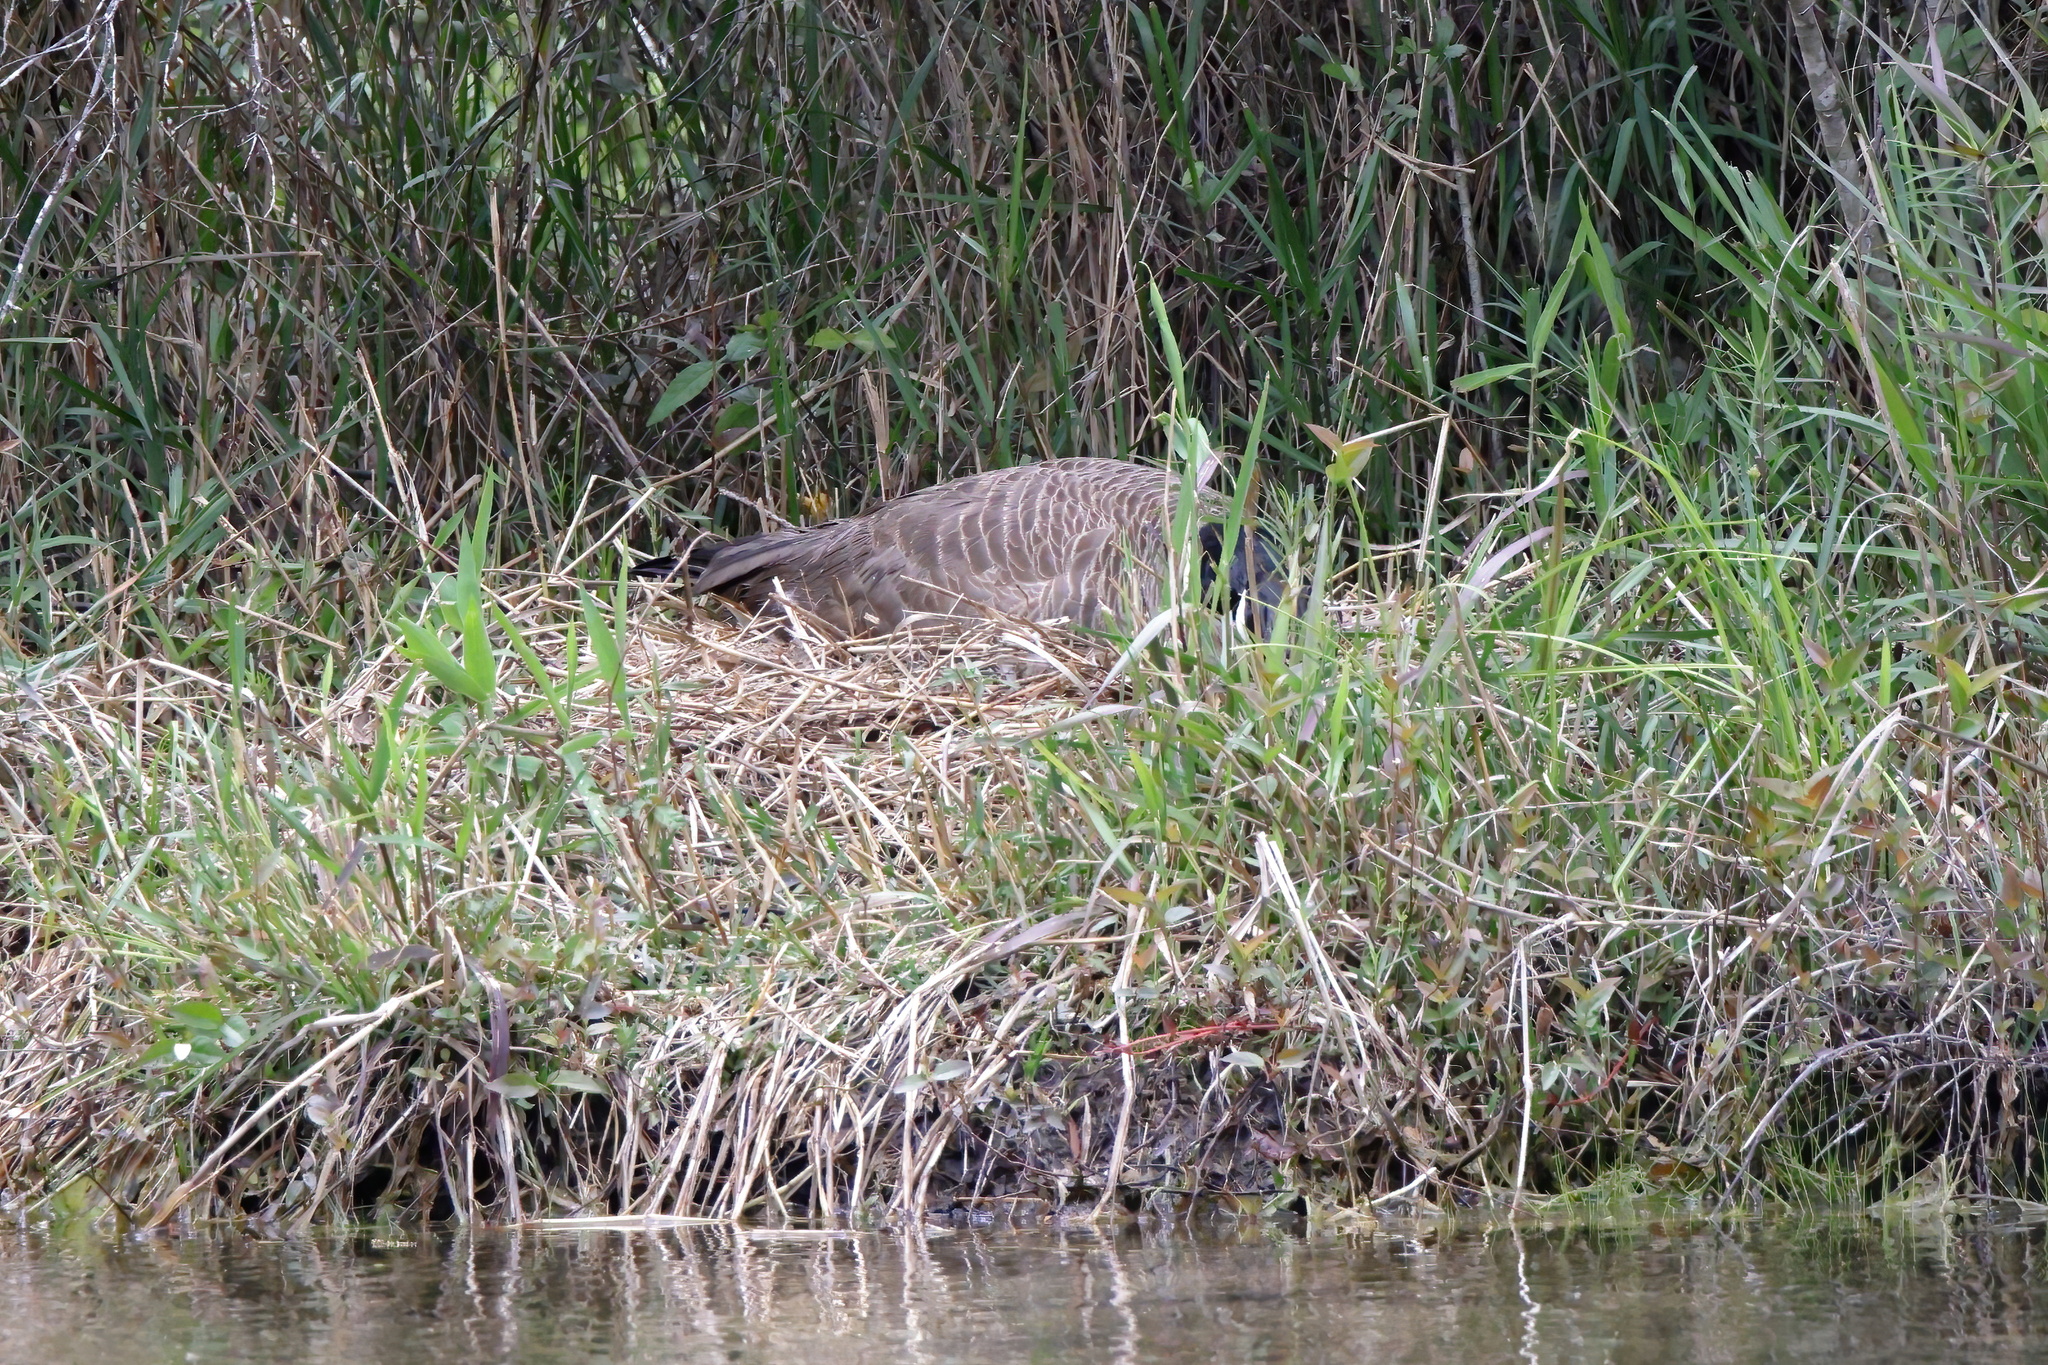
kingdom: Animalia
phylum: Chordata
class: Aves
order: Anseriformes
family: Anatidae
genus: Branta
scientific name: Branta canadensis
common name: Canada goose
